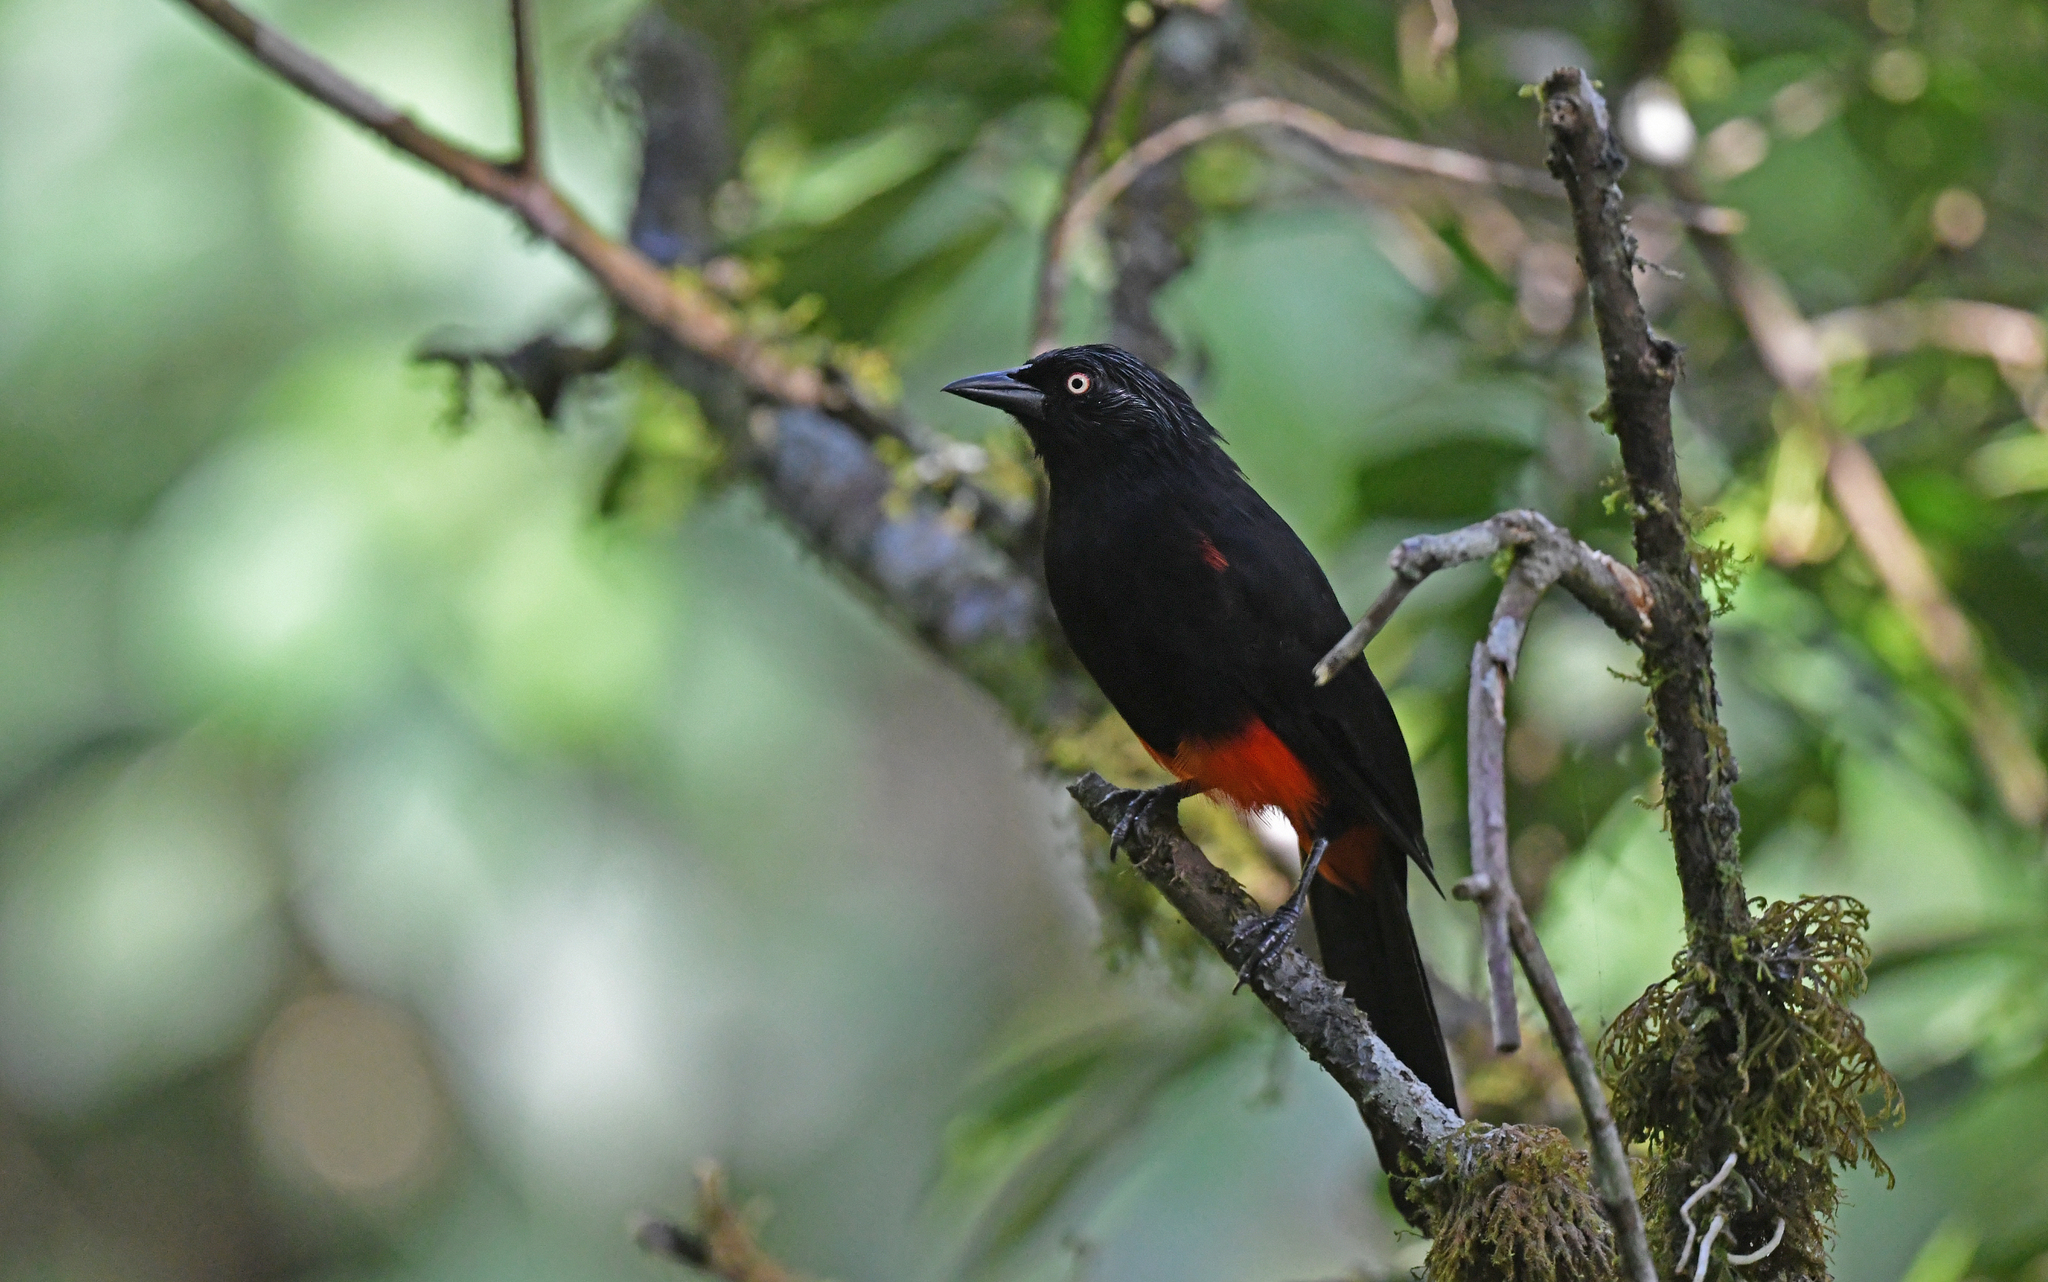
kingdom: Animalia
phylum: Chordata
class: Aves
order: Passeriformes
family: Icteridae
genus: Hypopyrrhus
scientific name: Hypopyrrhus pyrohypogaster
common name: Red-bellied grackle
